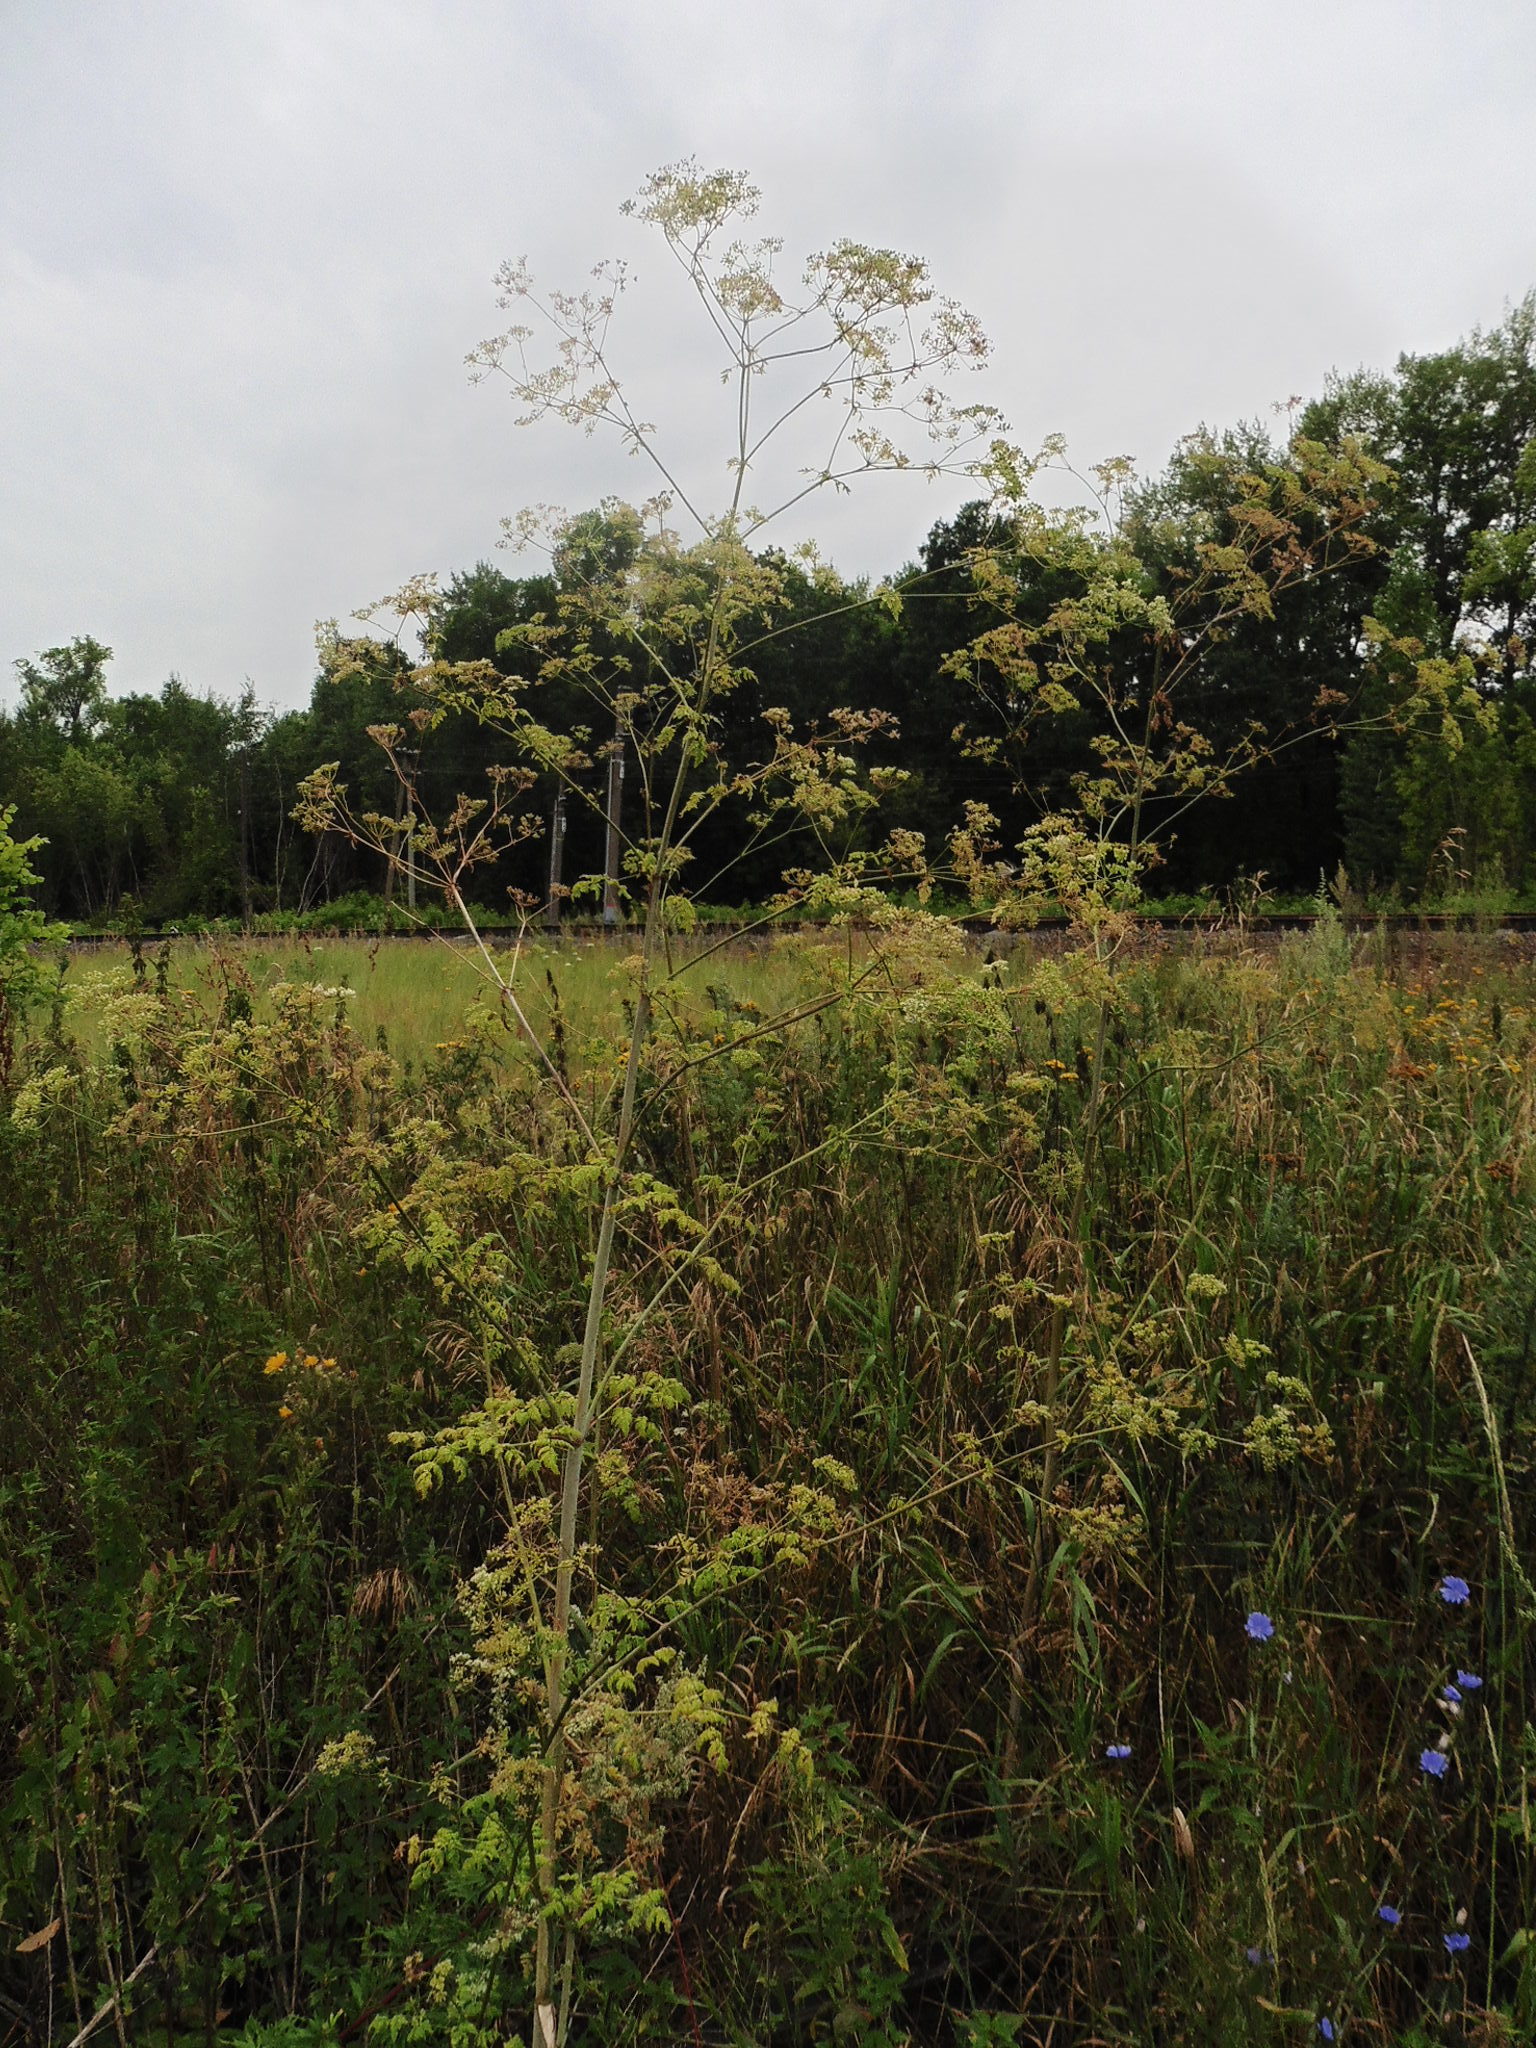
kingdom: Plantae
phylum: Tracheophyta
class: Magnoliopsida
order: Apiales
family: Apiaceae
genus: Conium
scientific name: Conium maculatum
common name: Hemlock
